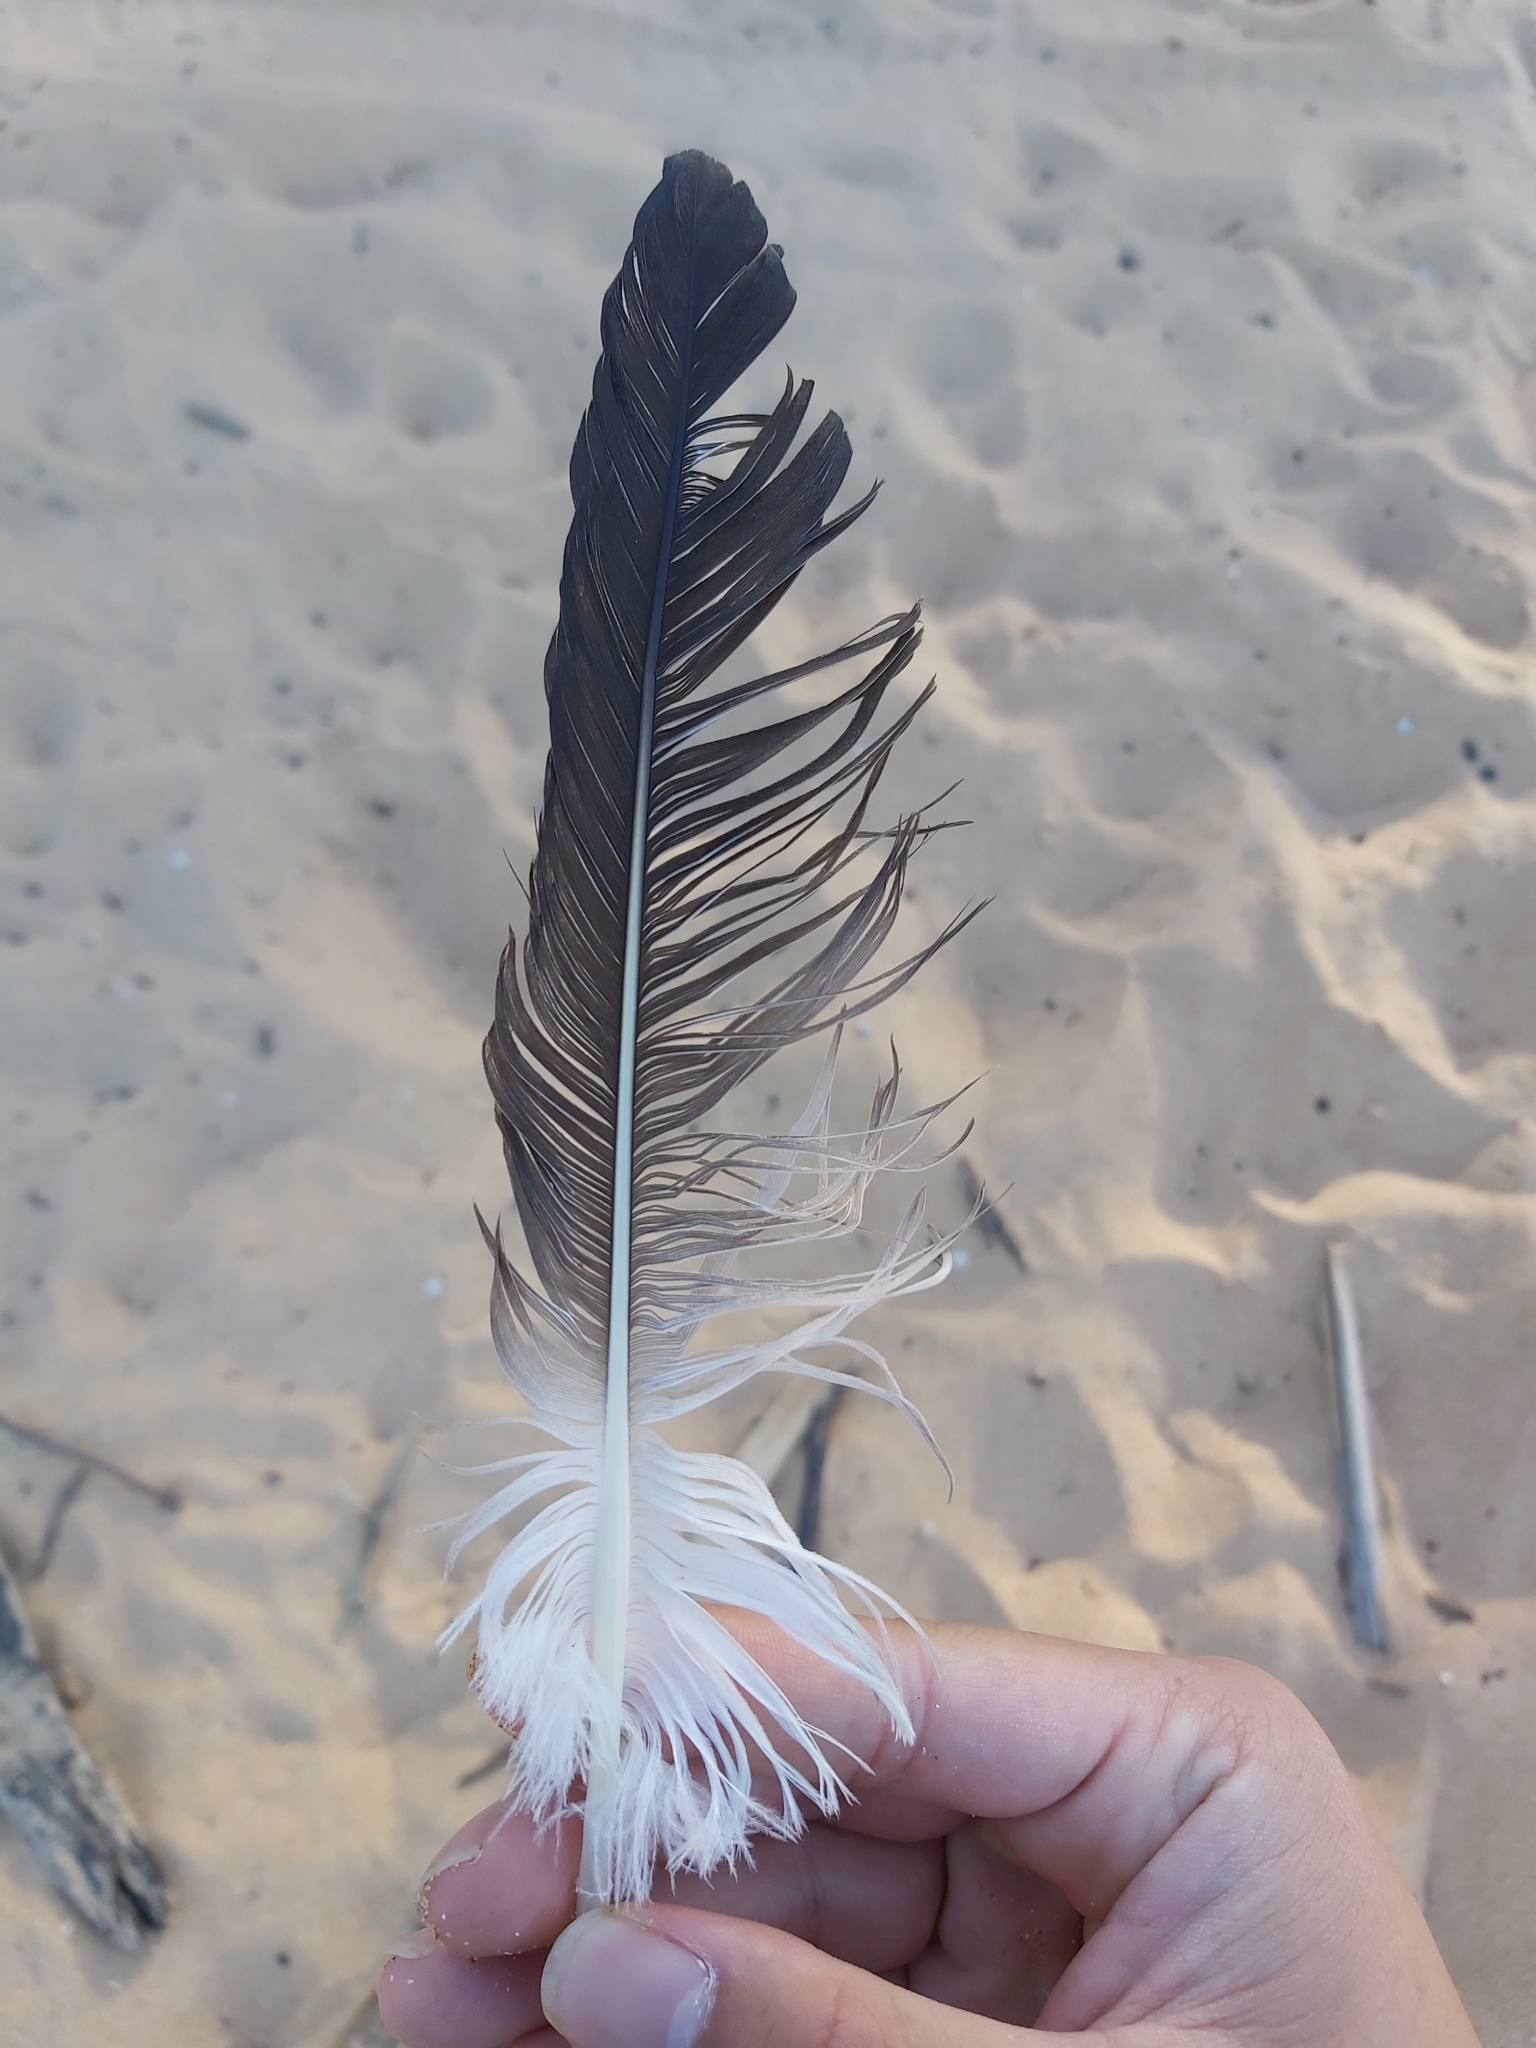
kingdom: Animalia
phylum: Chordata
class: Aves
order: Suliformes
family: Sulidae
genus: Morus
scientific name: Morus serrator
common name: Australasian gannet
